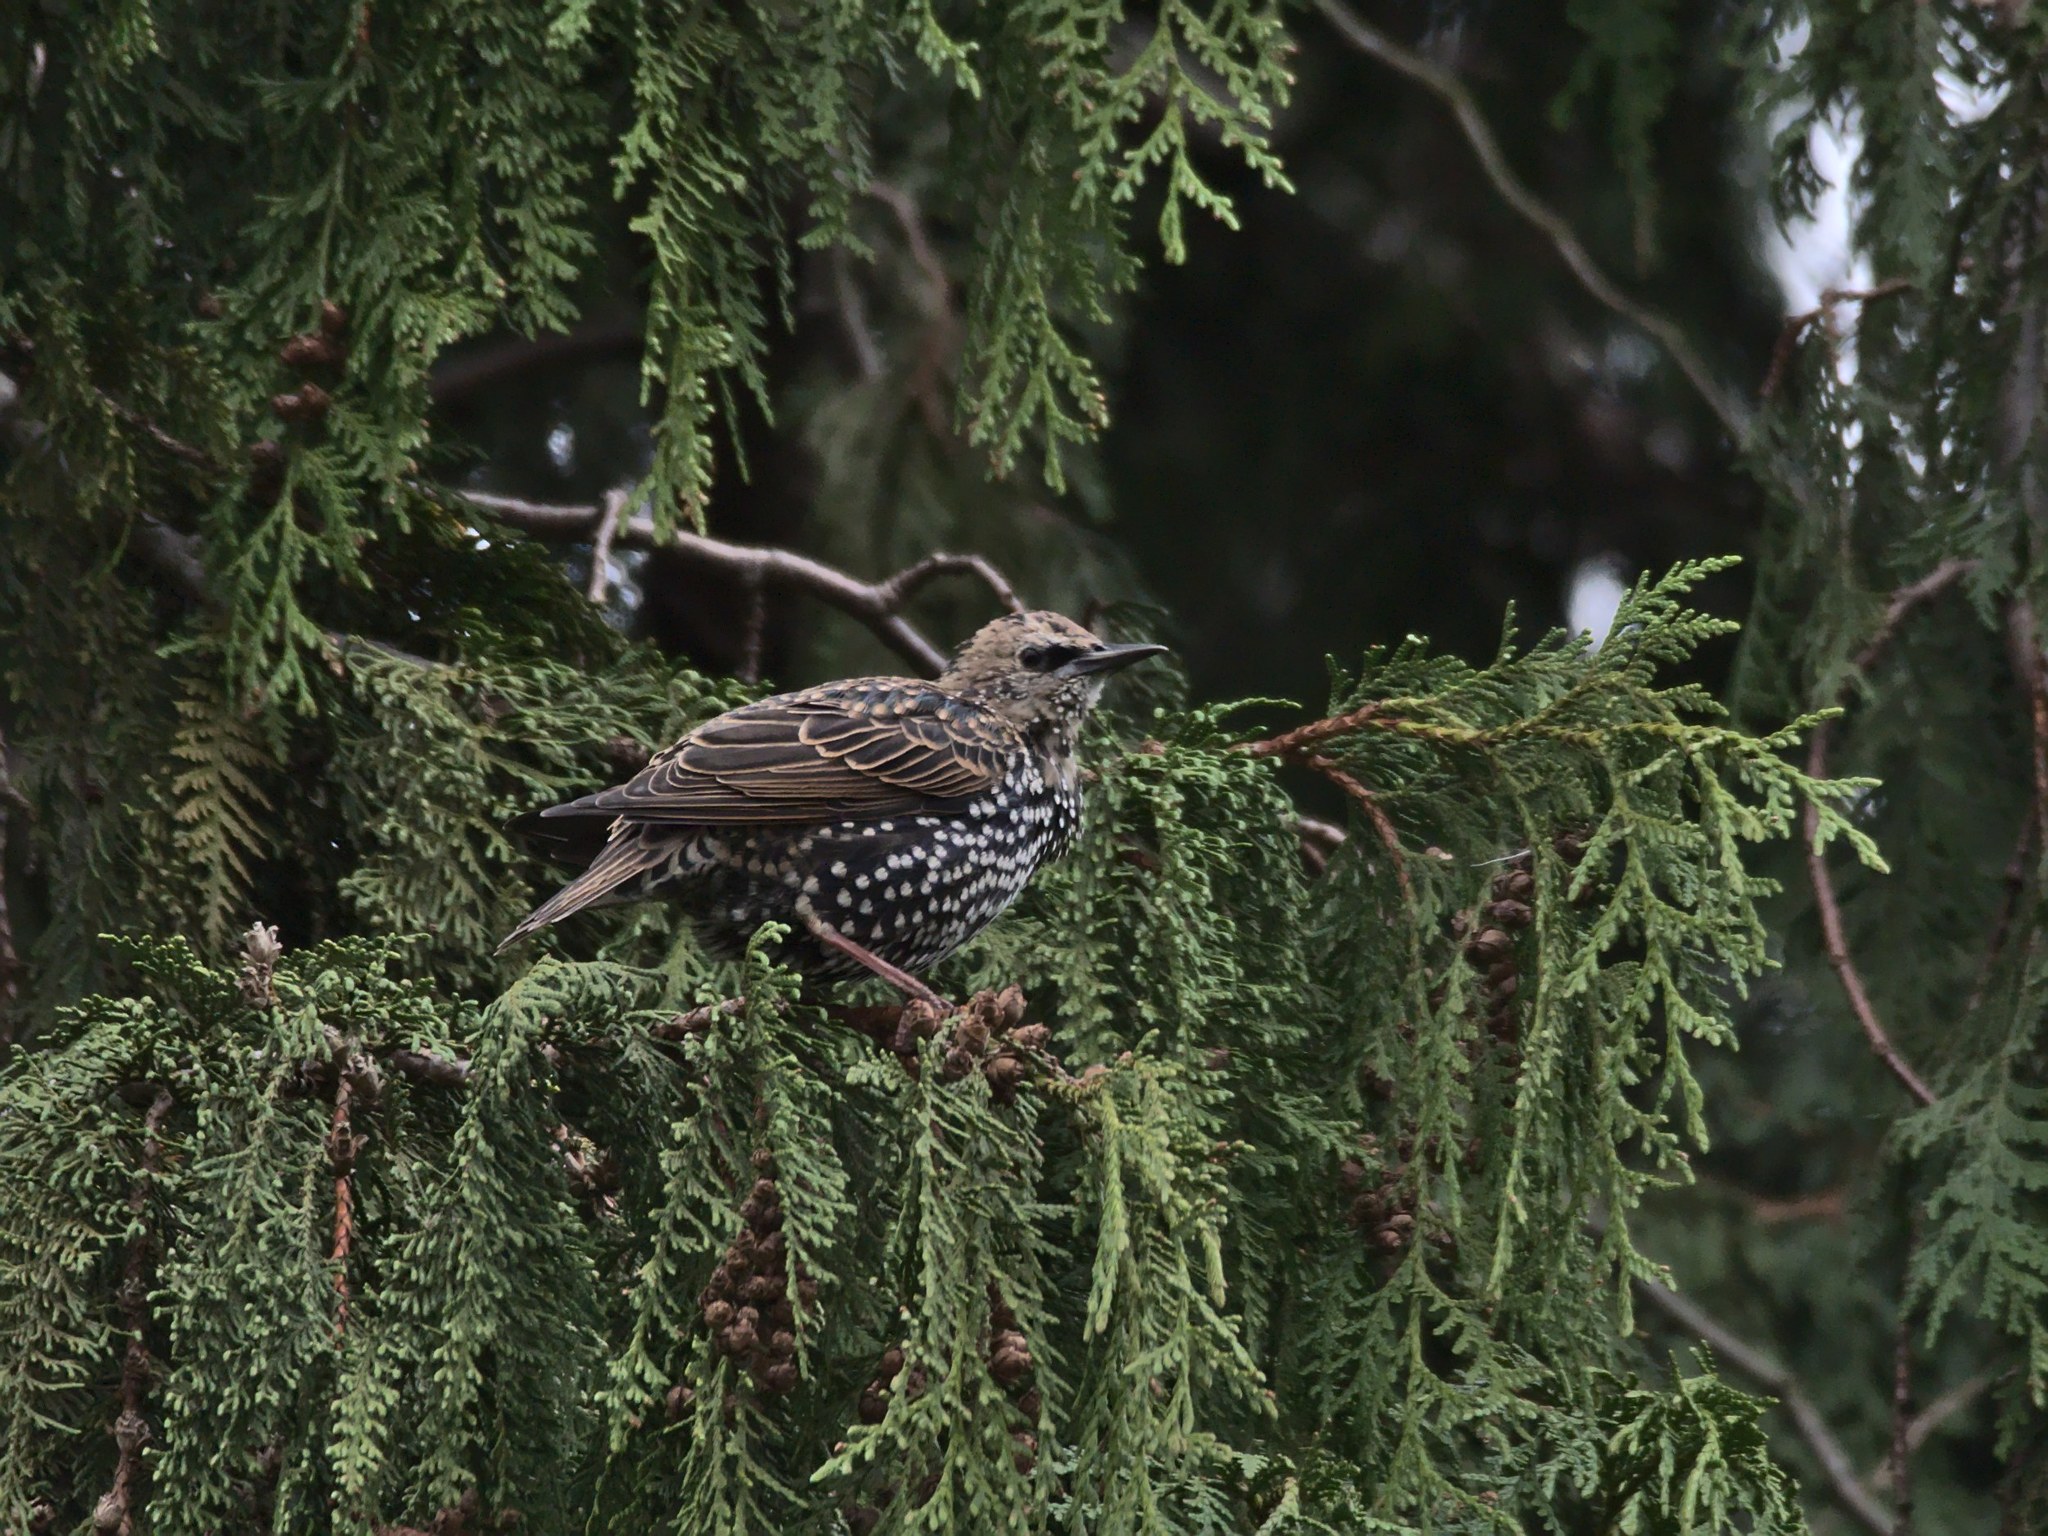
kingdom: Animalia
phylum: Chordata
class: Aves
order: Passeriformes
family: Sturnidae
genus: Sturnus
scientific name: Sturnus vulgaris
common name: Common starling
